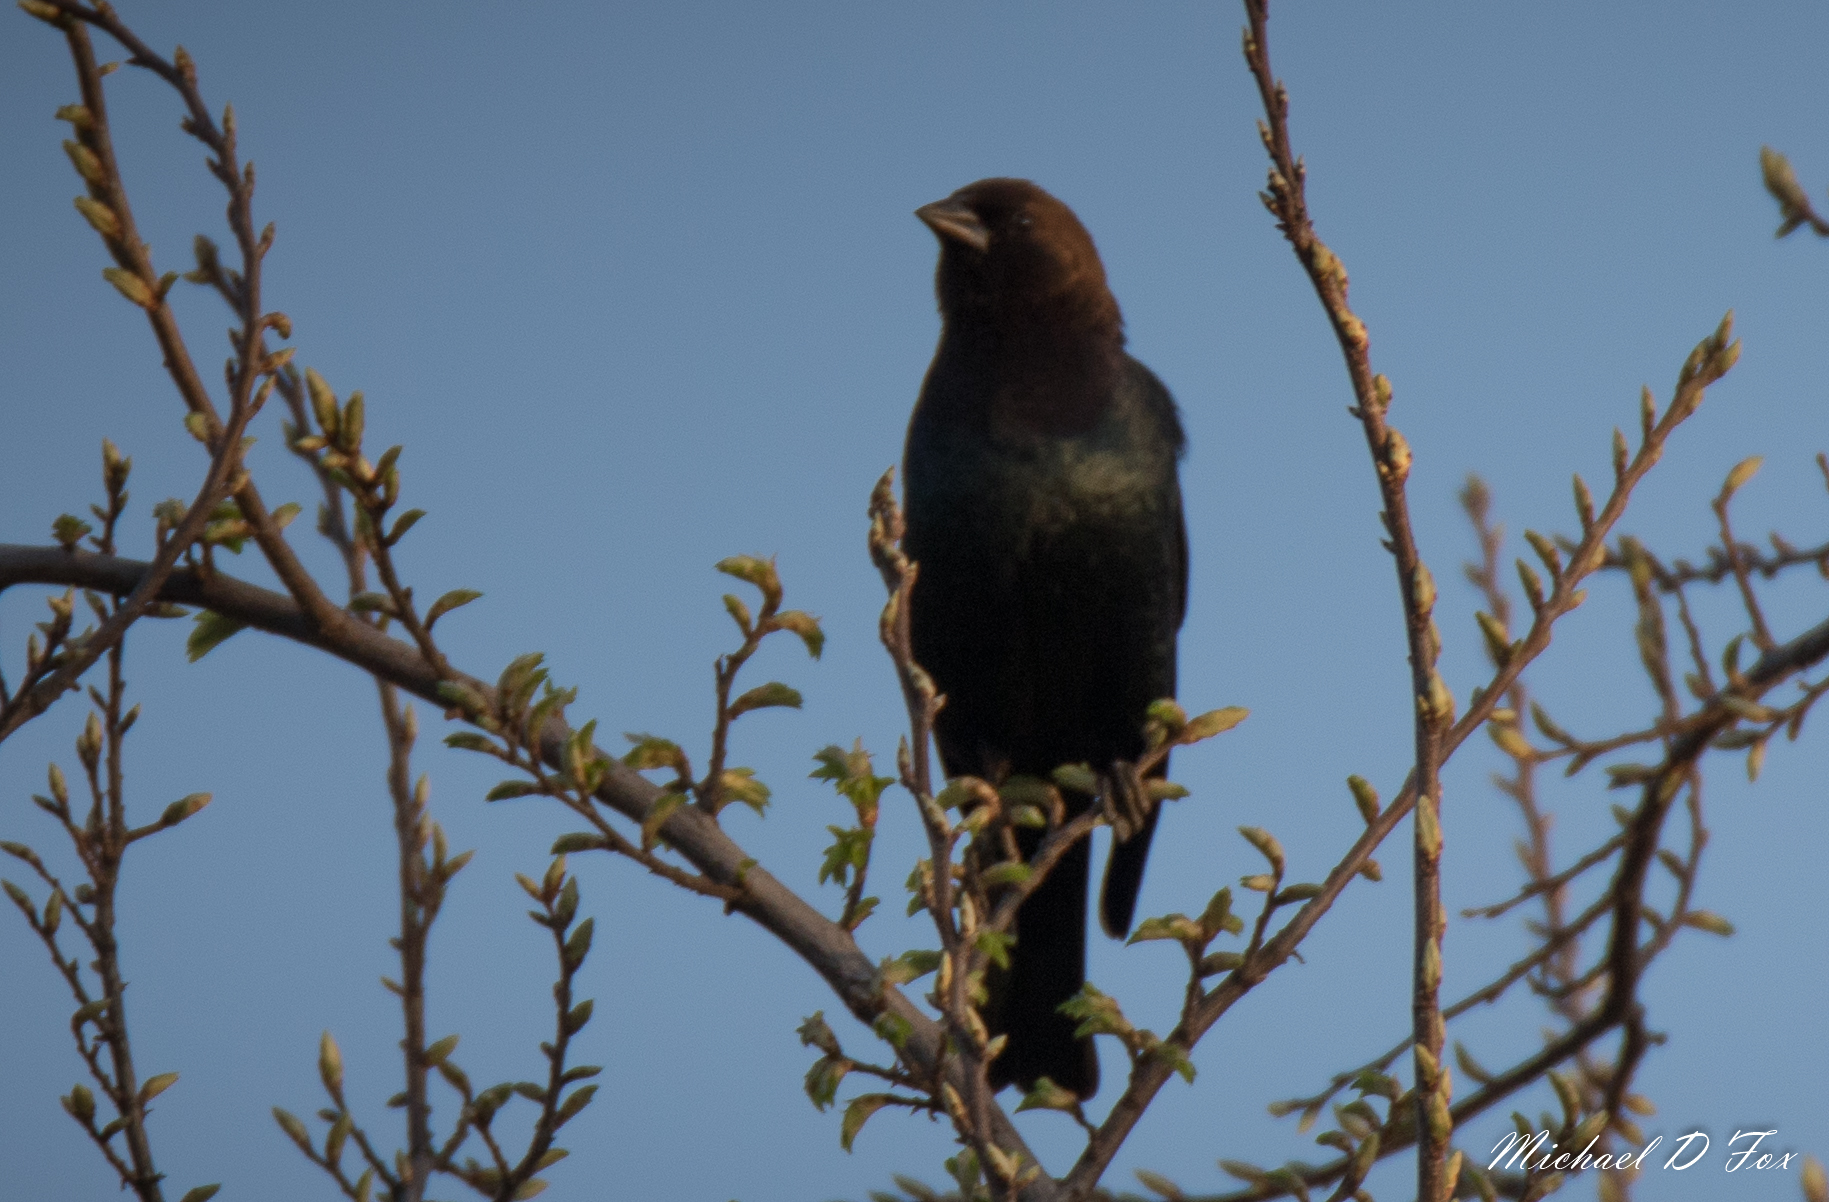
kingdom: Animalia
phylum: Chordata
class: Aves
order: Passeriformes
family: Icteridae
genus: Molothrus
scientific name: Molothrus ater
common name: Brown-headed cowbird
